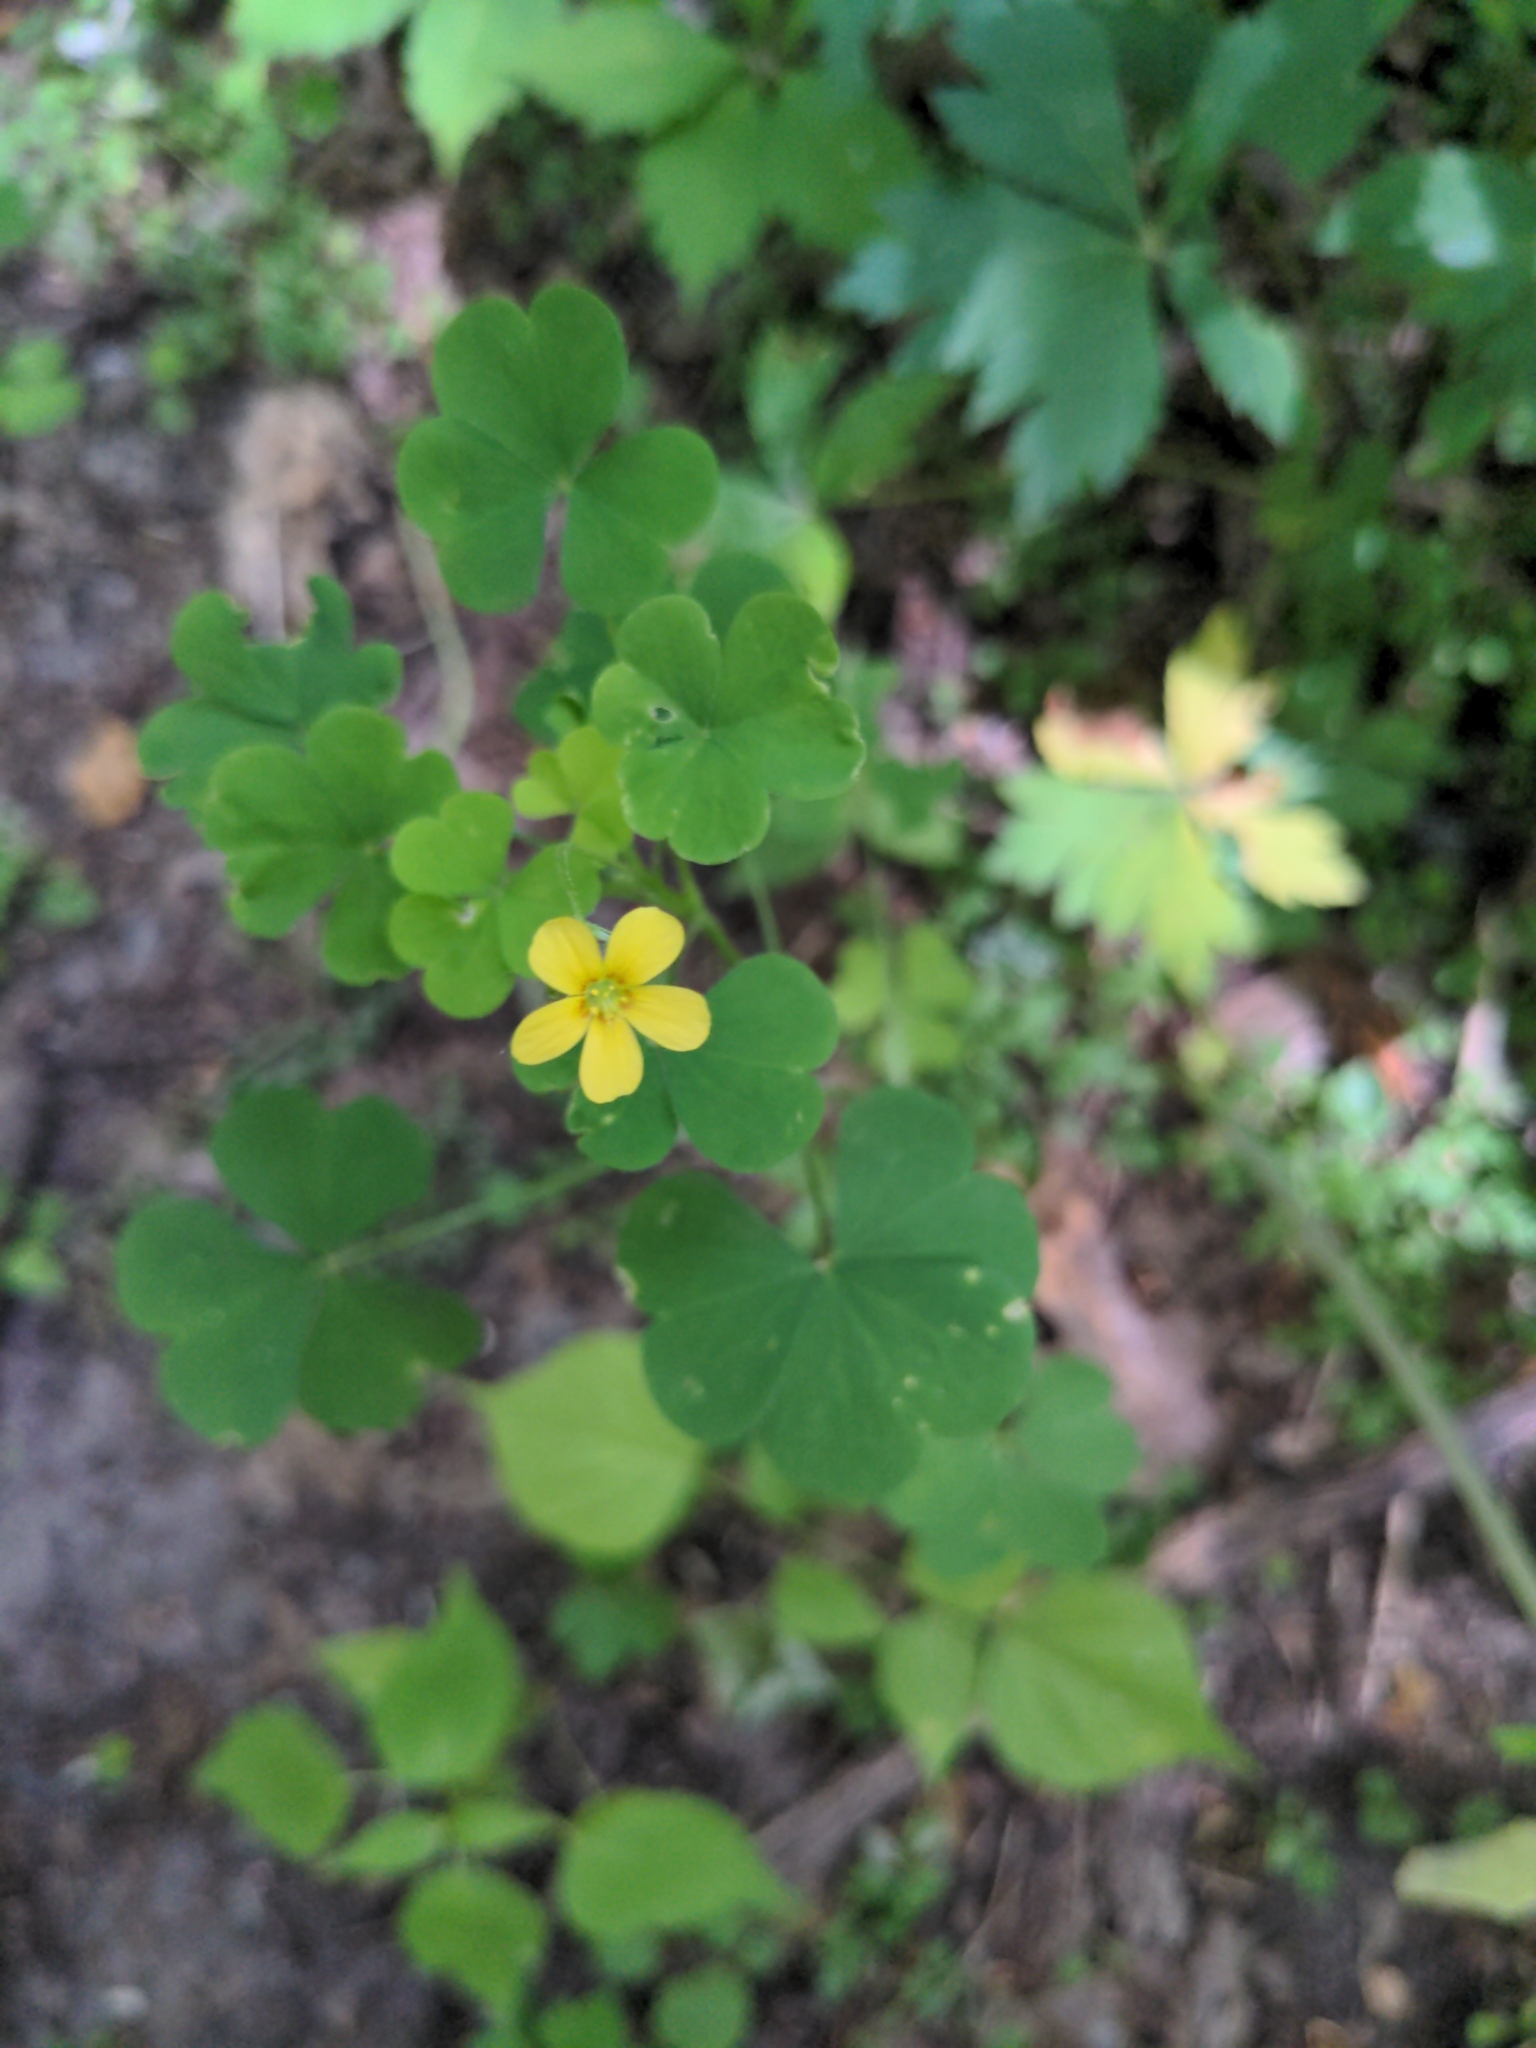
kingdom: Plantae
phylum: Tracheophyta
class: Magnoliopsida
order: Oxalidales
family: Oxalidaceae
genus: Oxalis
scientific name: Oxalis stricta
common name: Upright yellow-sorrel
